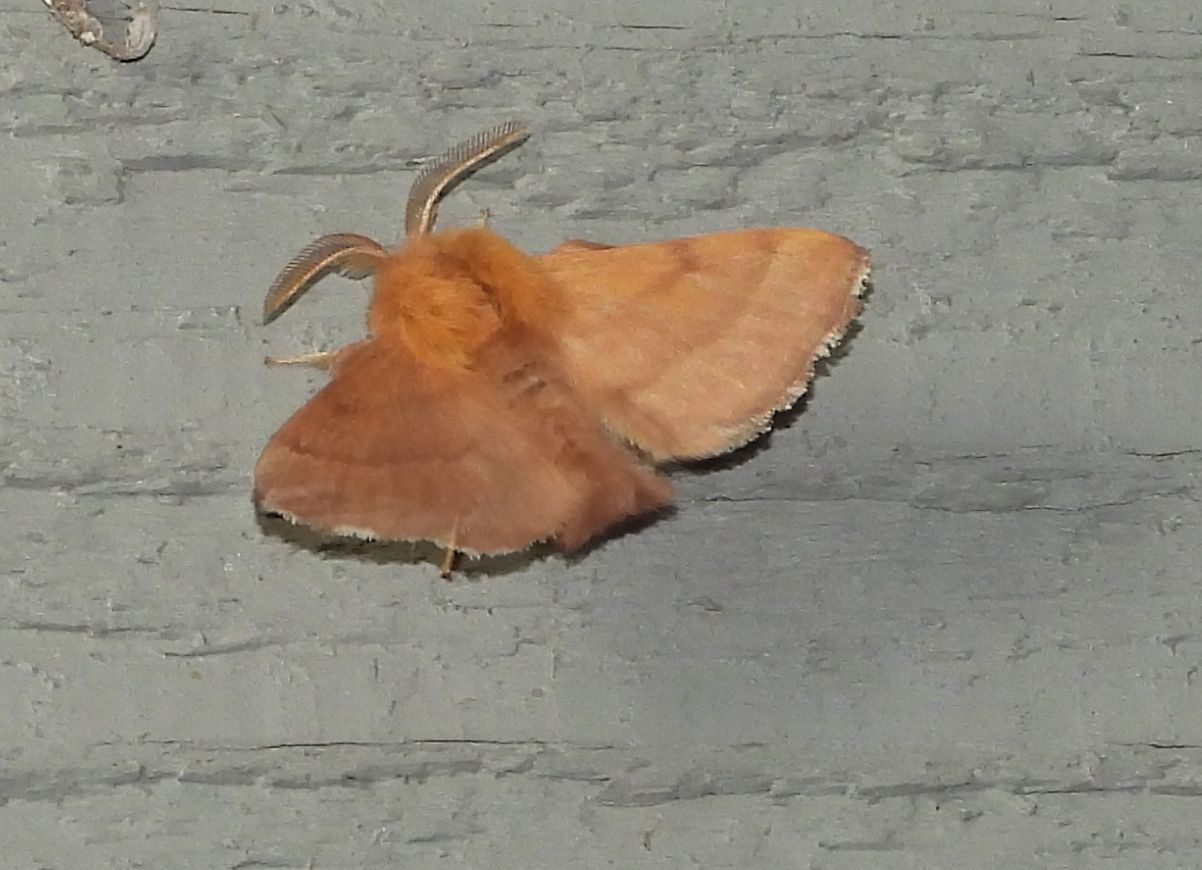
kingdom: Animalia
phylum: Arthropoda
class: Insecta
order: Lepidoptera
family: Lasiocampidae
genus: Malacosoma
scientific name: Malacosoma disstria
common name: Forest tent caterpillar
